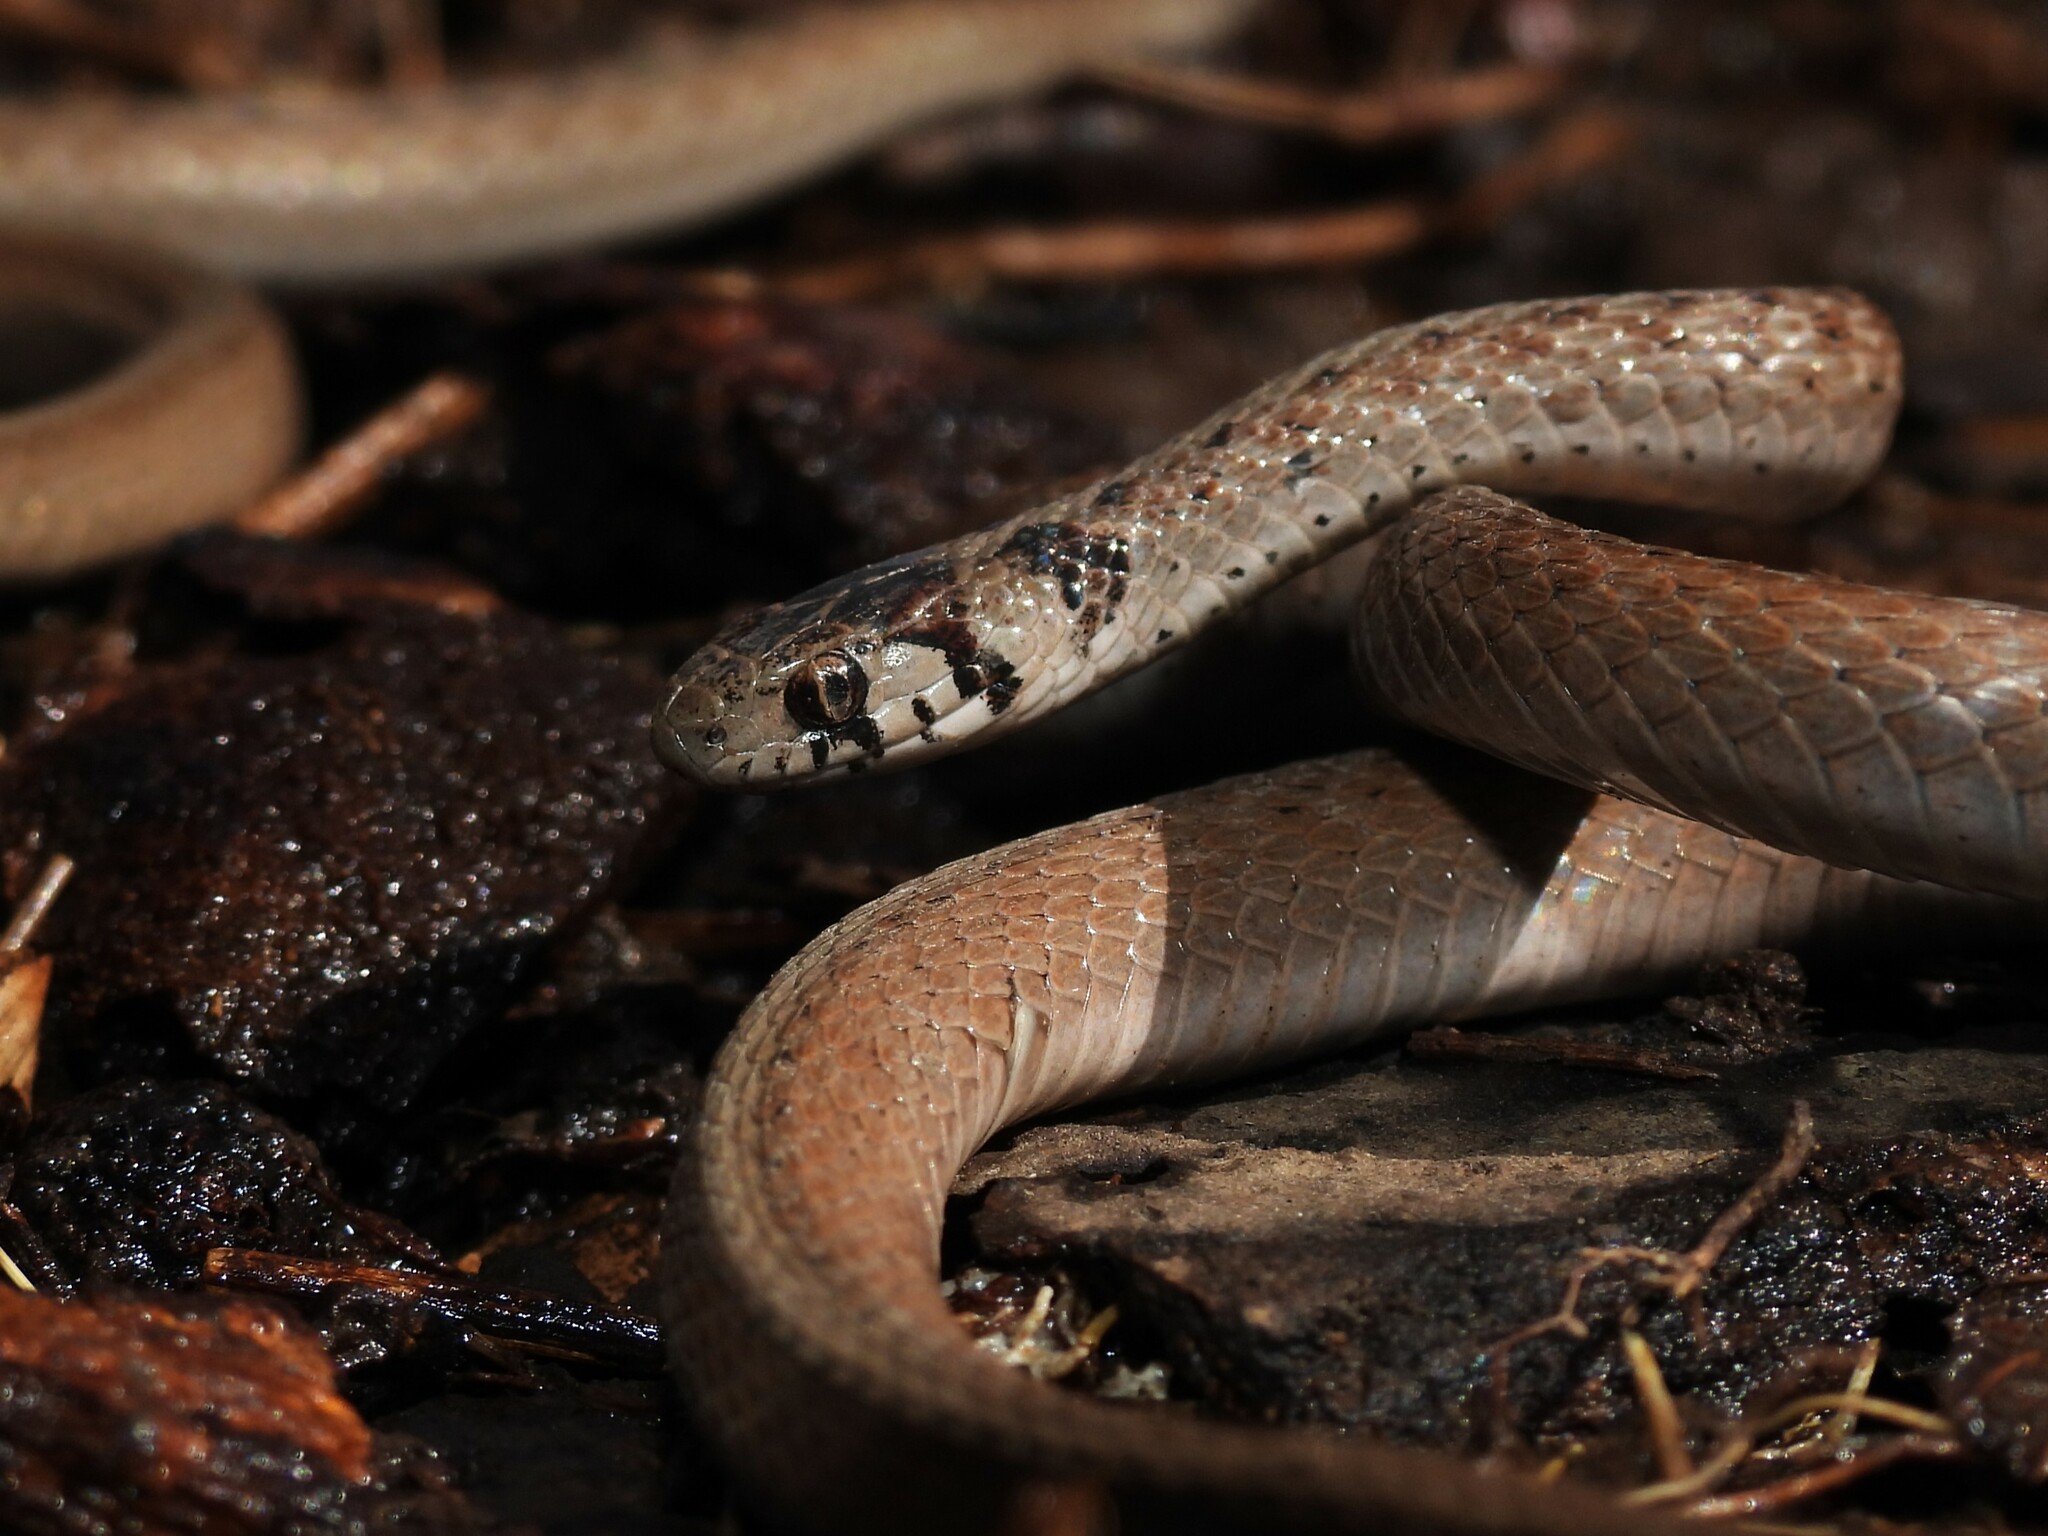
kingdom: Animalia
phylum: Chordata
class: Squamata
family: Colubridae
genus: Storeria
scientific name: Storeria dekayi
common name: (dekay’s) brown snake
